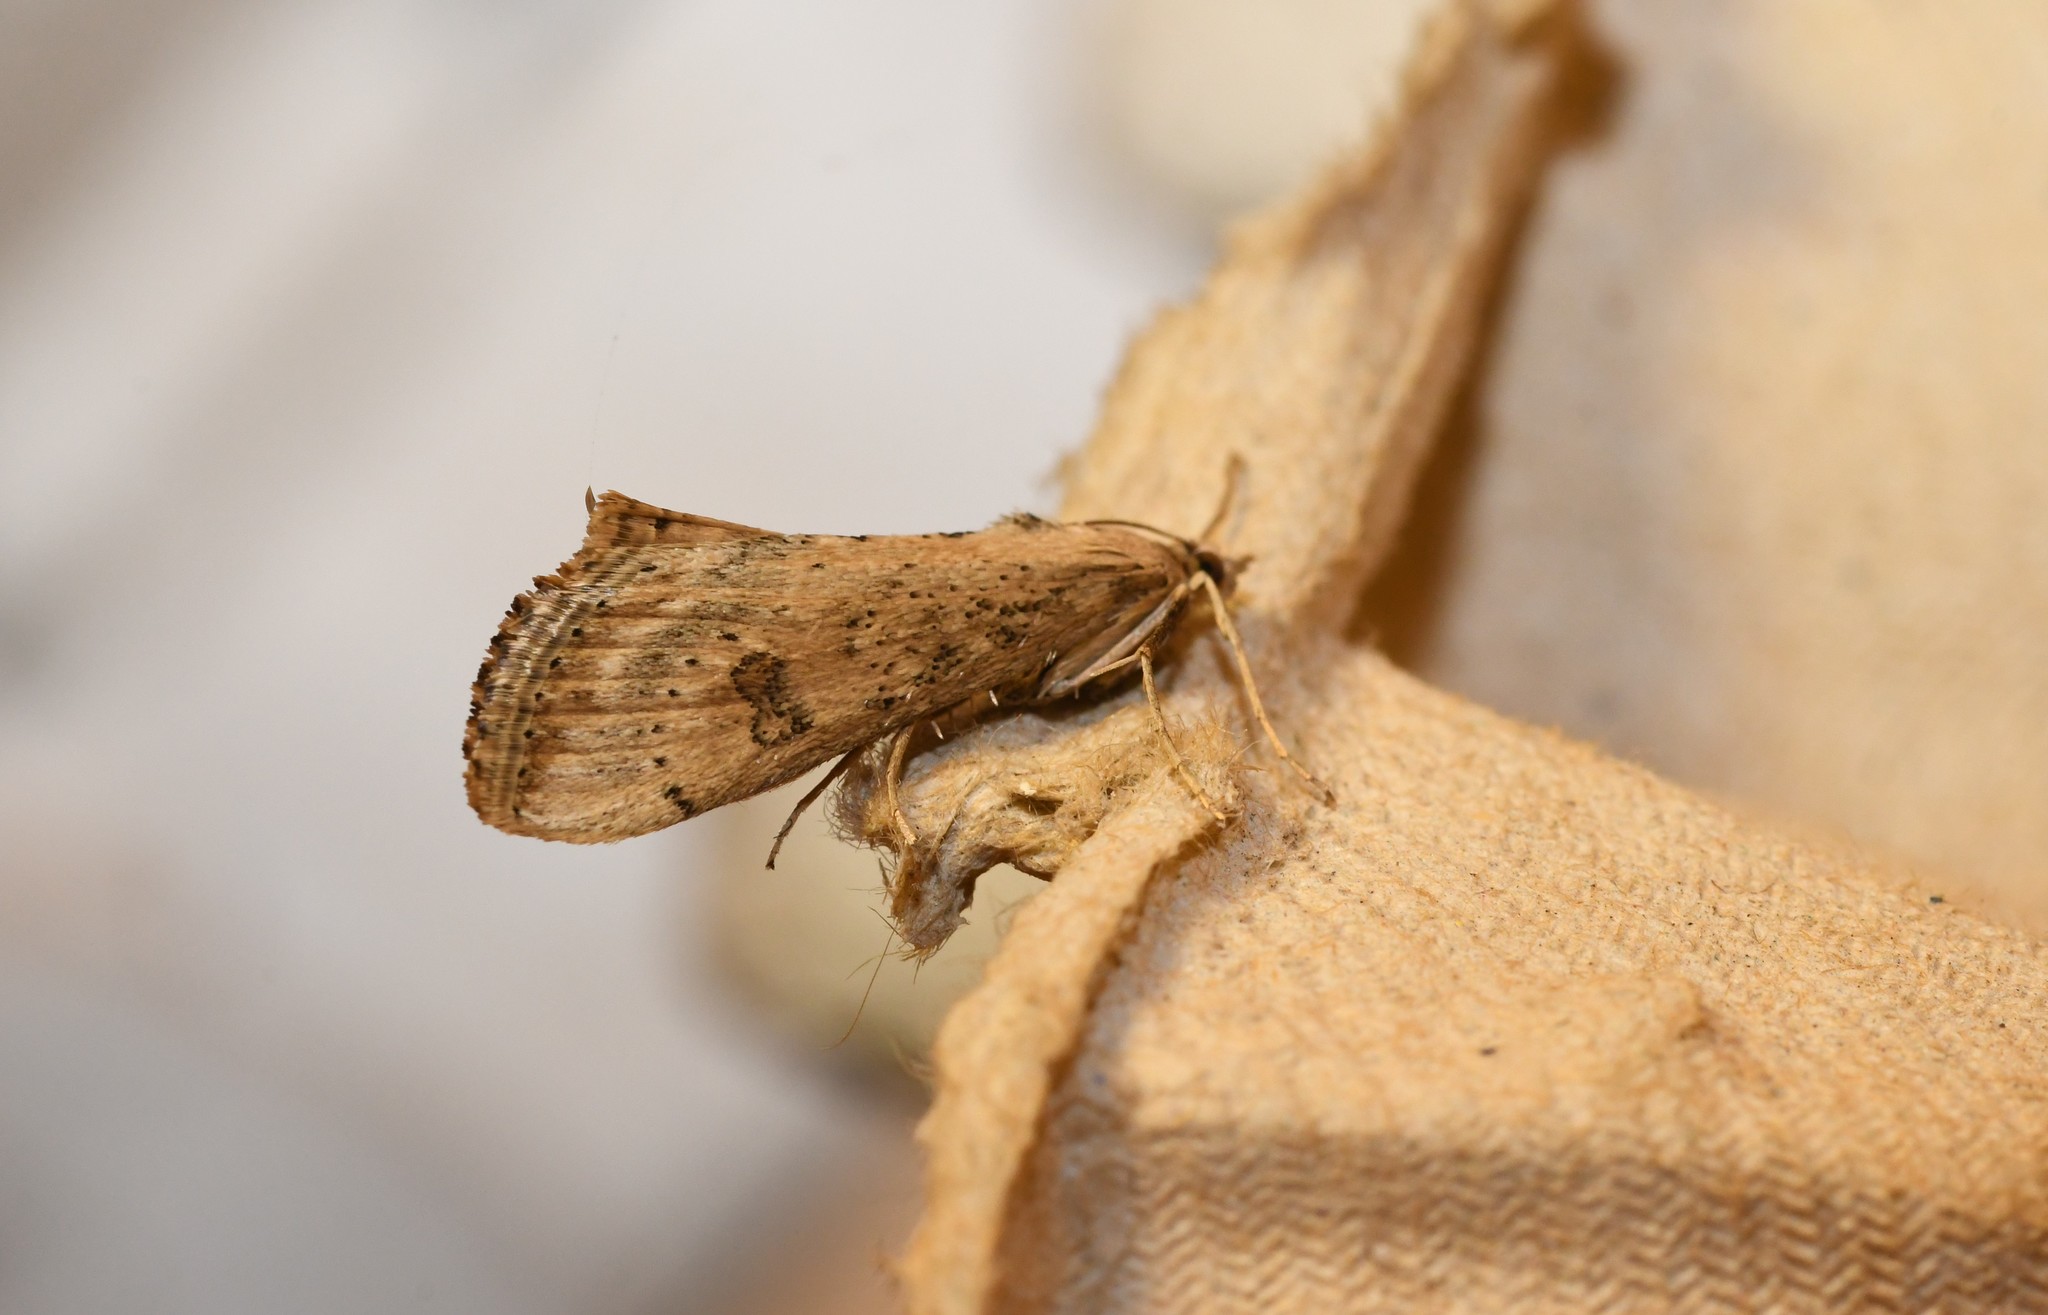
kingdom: Animalia
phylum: Arthropoda
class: Insecta
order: Lepidoptera
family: Crambidae
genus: Evergestis
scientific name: Evergestis isatidalis
